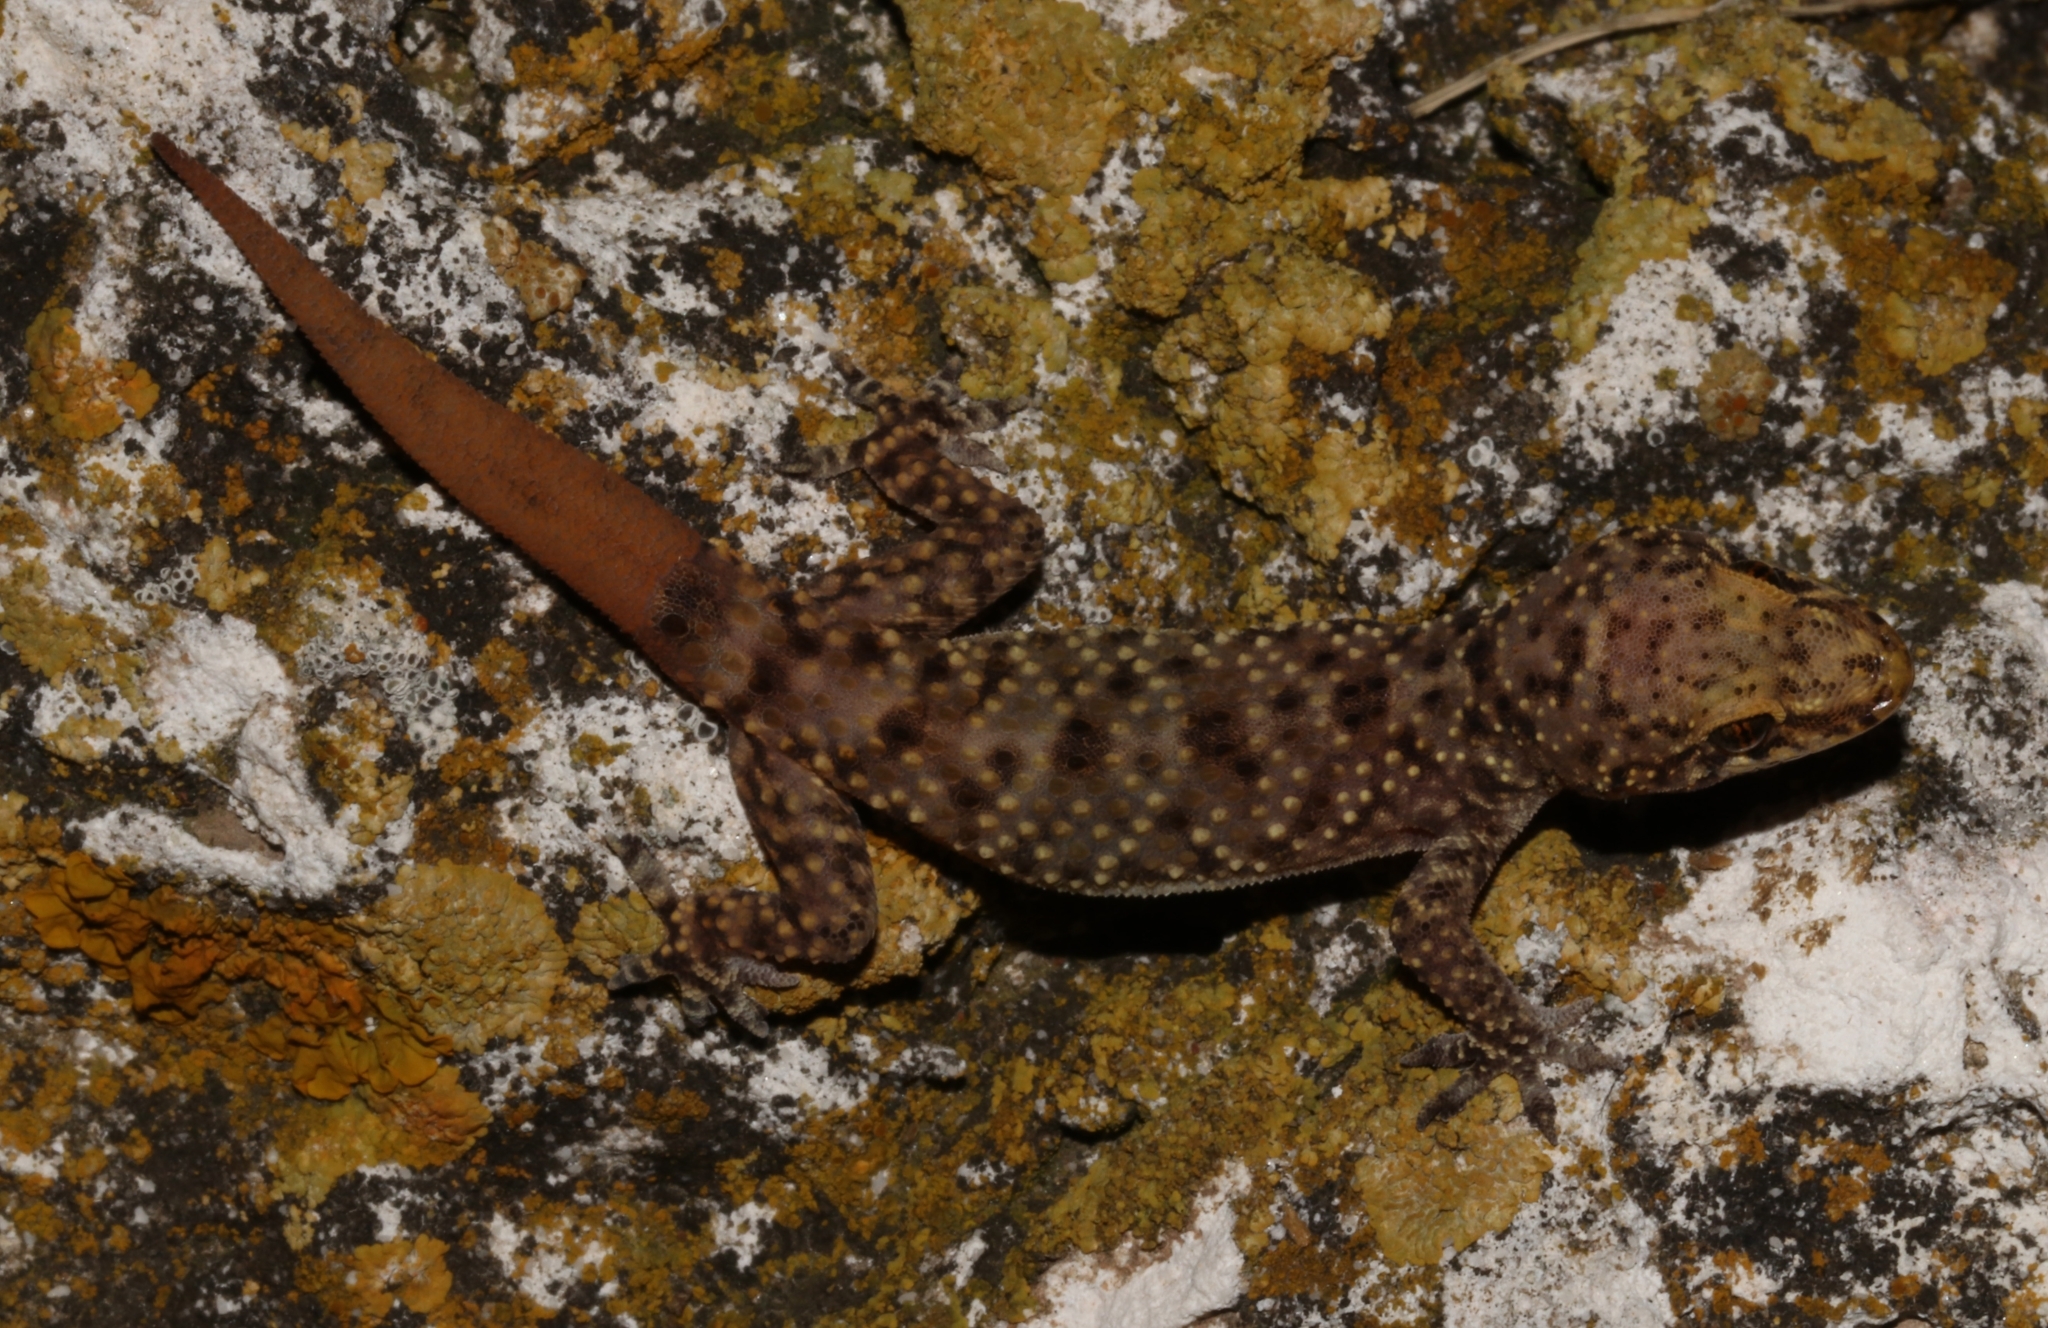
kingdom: Animalia
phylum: Chordata
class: Squamata
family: Gekkonidae
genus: Hemidactylus
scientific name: Hemidactylus turcicus
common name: Turkish gecko
